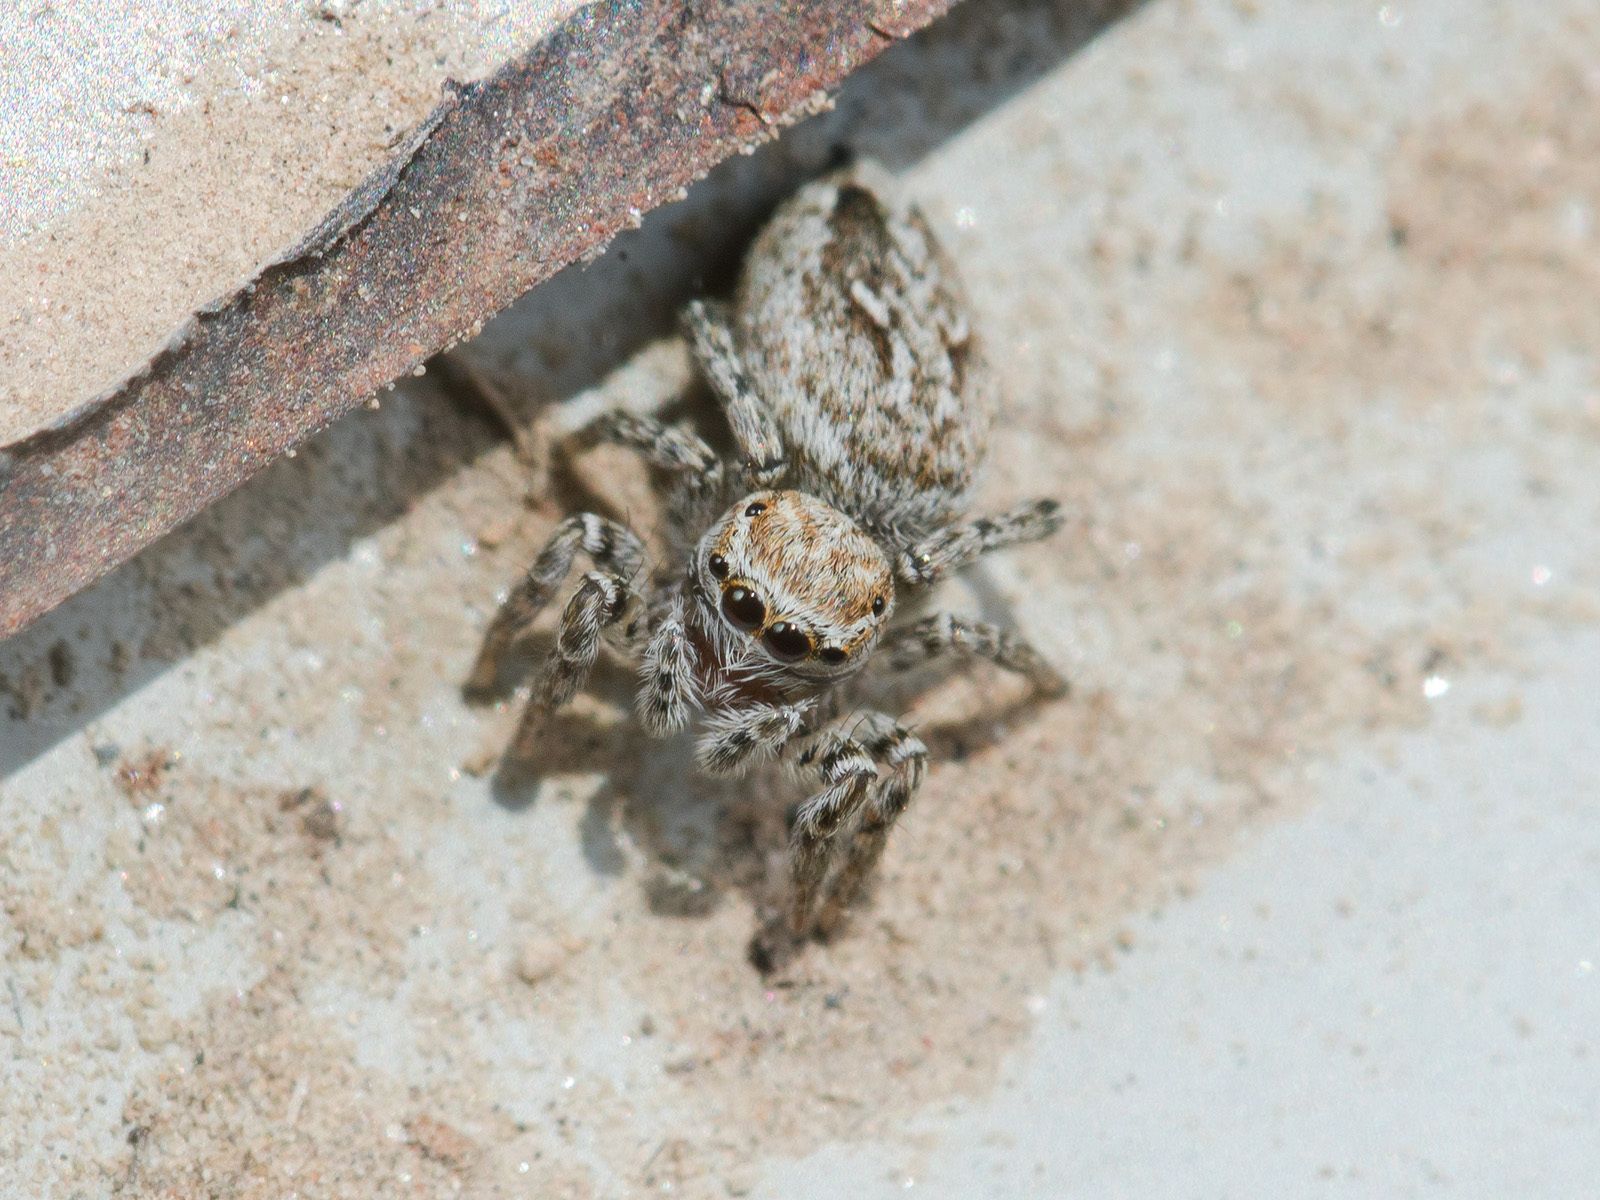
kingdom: Animalia
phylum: Arthropoda
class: Arachnida
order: Araneae
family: Salticidae
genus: Attulus
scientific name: Attulus nenilini
